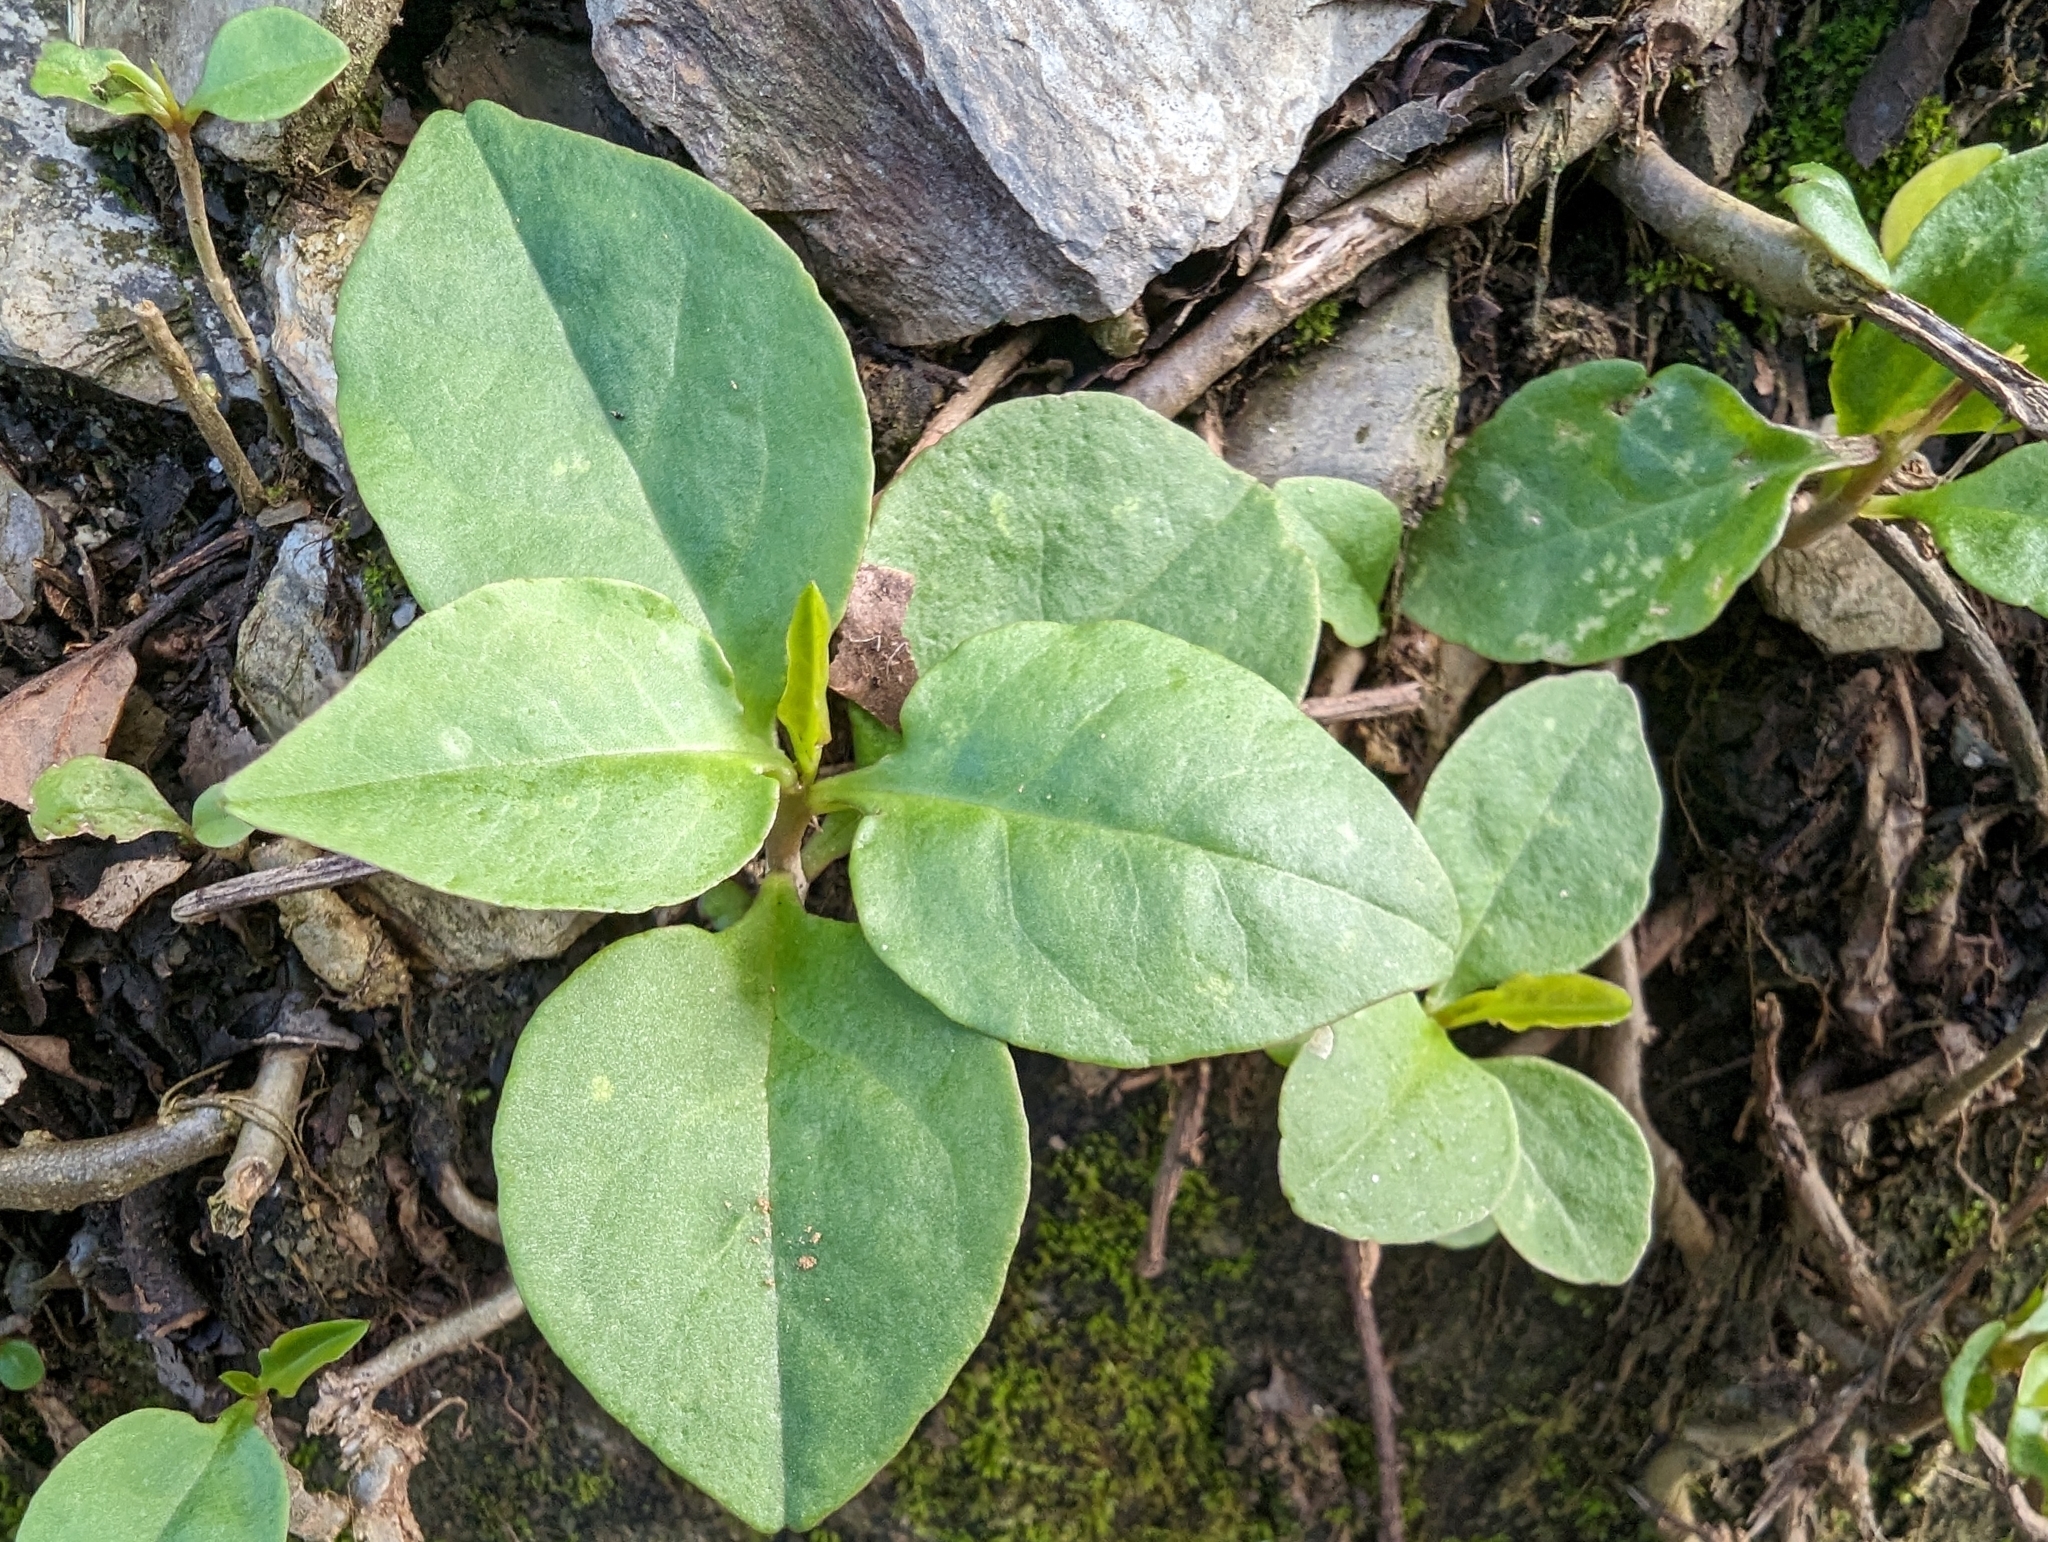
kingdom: Plantae
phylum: Tracheophyta
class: Magnoliopsida
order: Caryophyllales
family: Basellaceae
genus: Anredera
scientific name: Anredera cordifolia
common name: Heartleaf madeiravine
